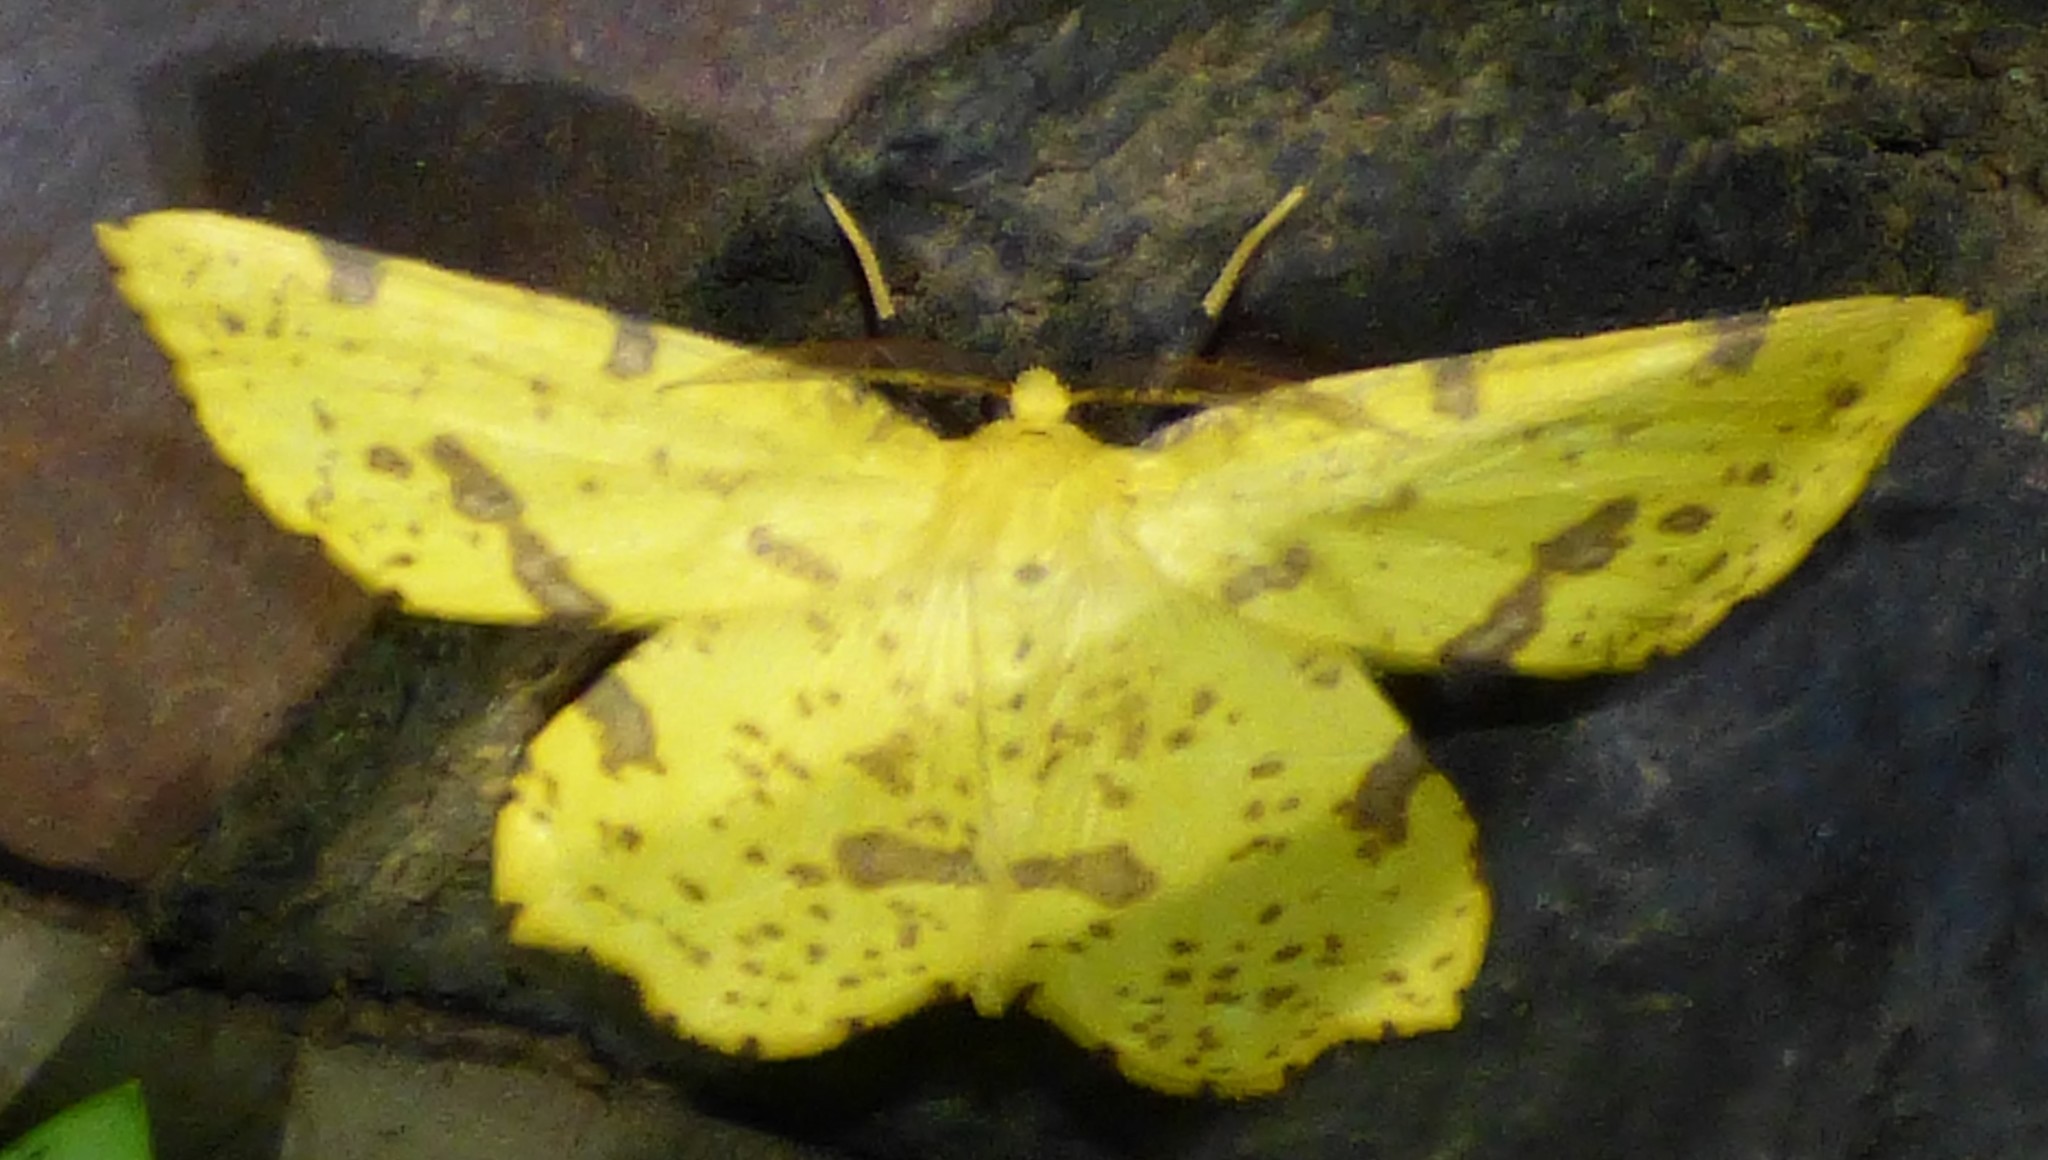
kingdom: Animalia
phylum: Arthropoda
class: Insecta
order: Lepidoptera
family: Geometridae
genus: Xanthotype
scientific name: Xanthotype
